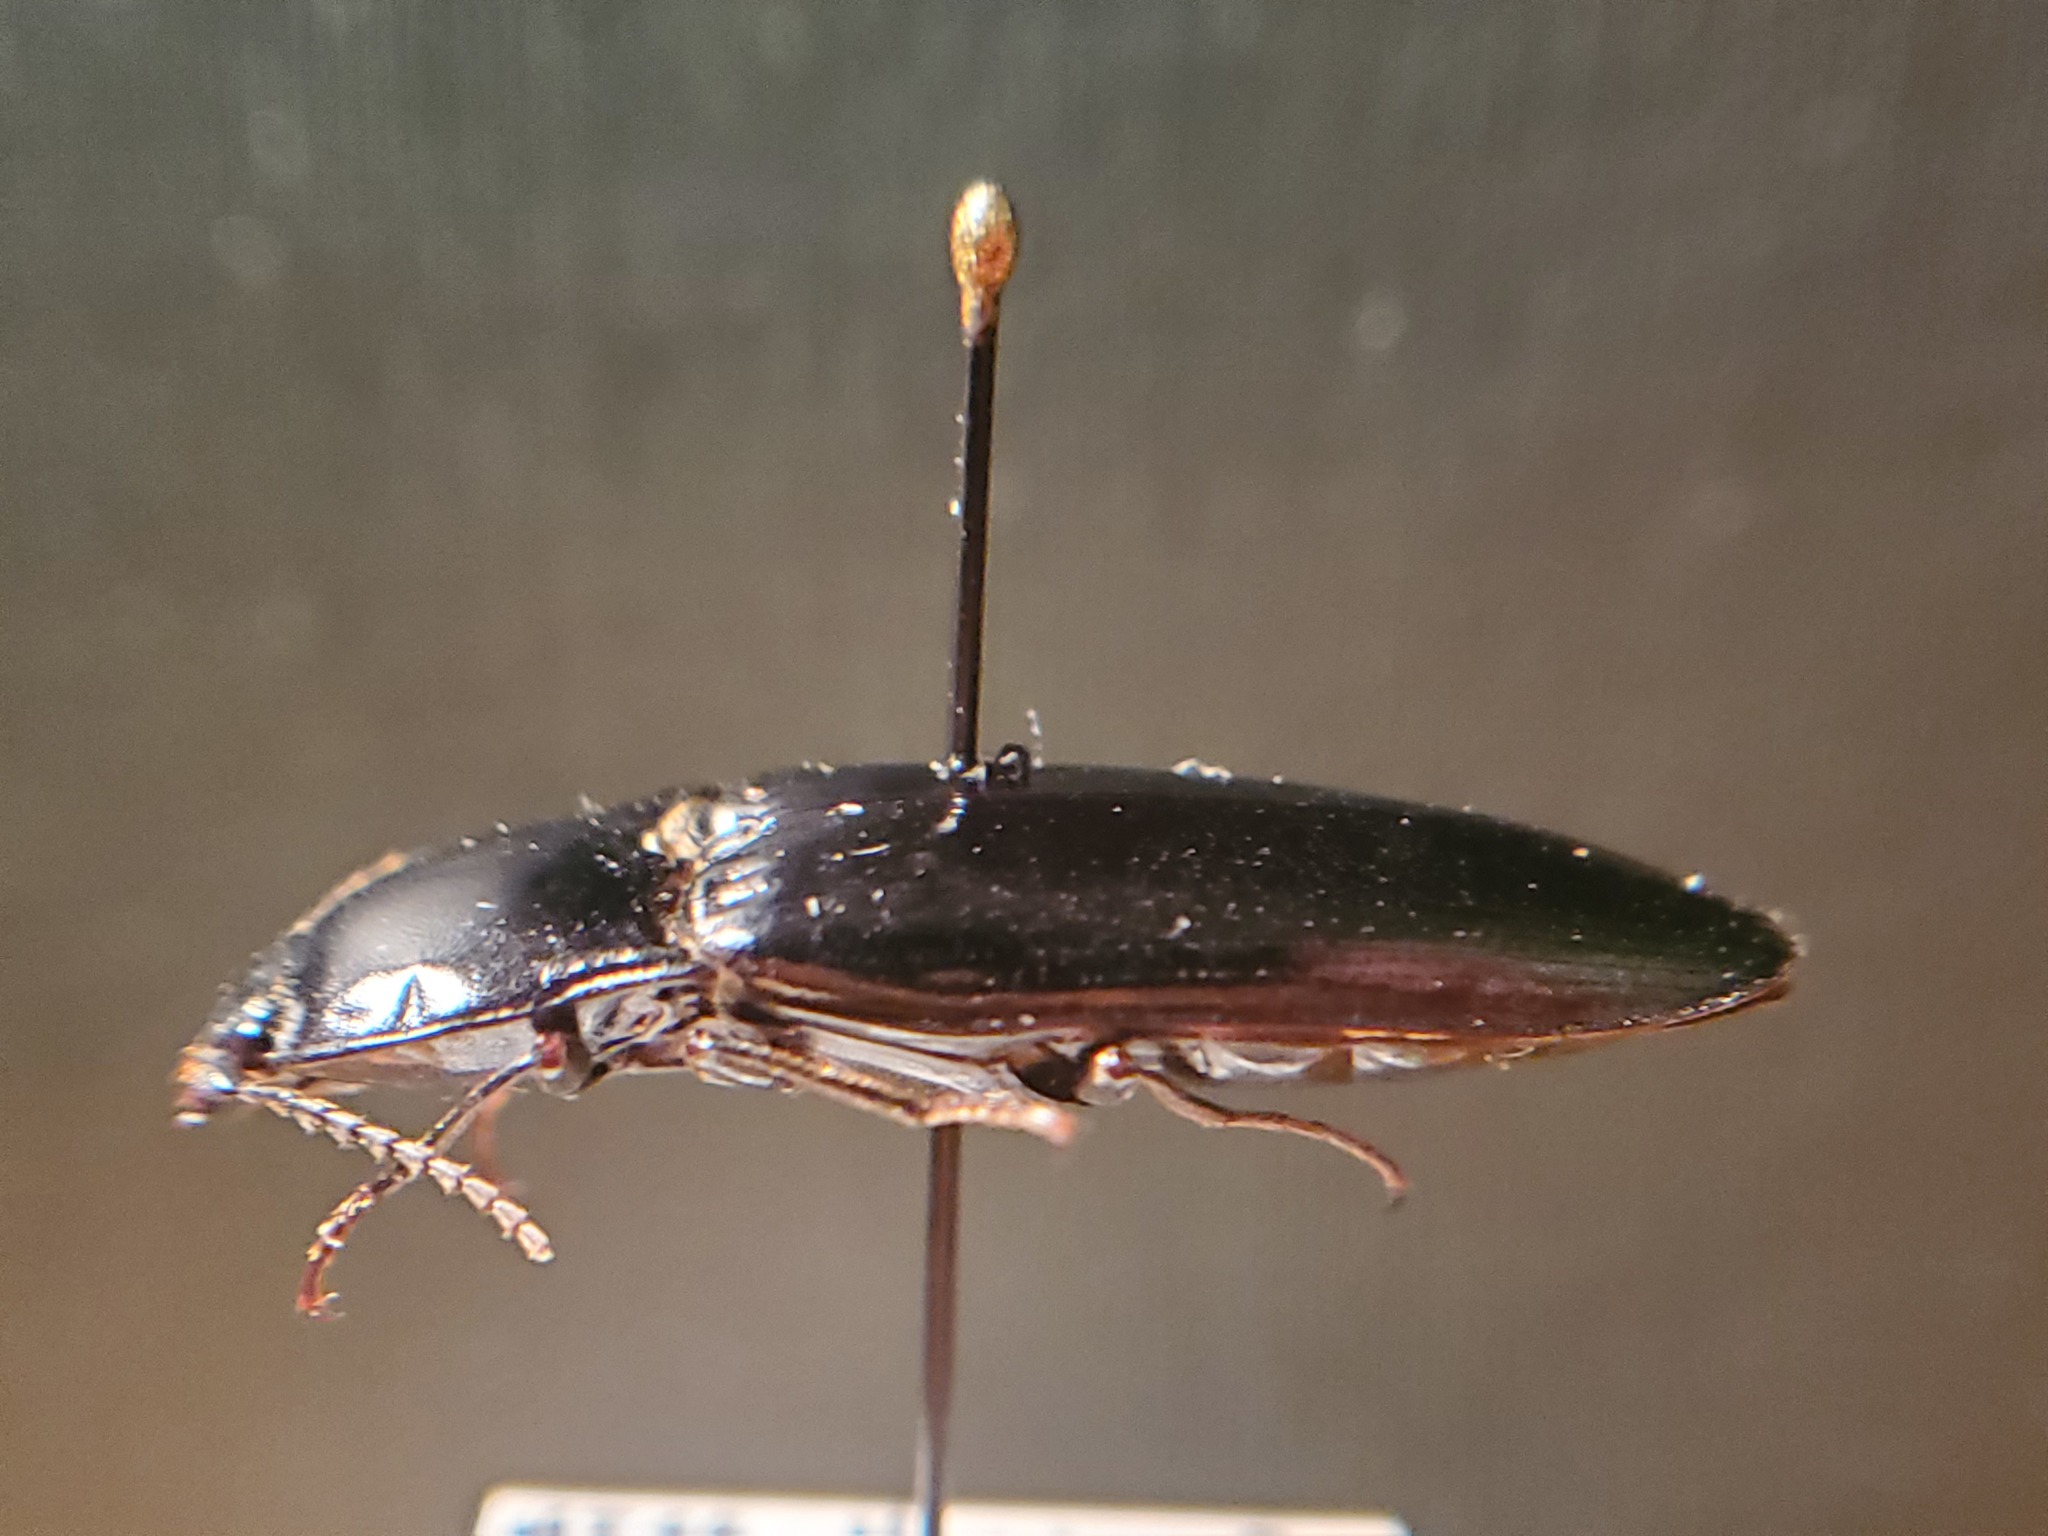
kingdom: Animalia
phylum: Arthropoda
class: Insecta
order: Coleoptera
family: Elateridae
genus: Melanactes
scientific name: Melanactes piceus
